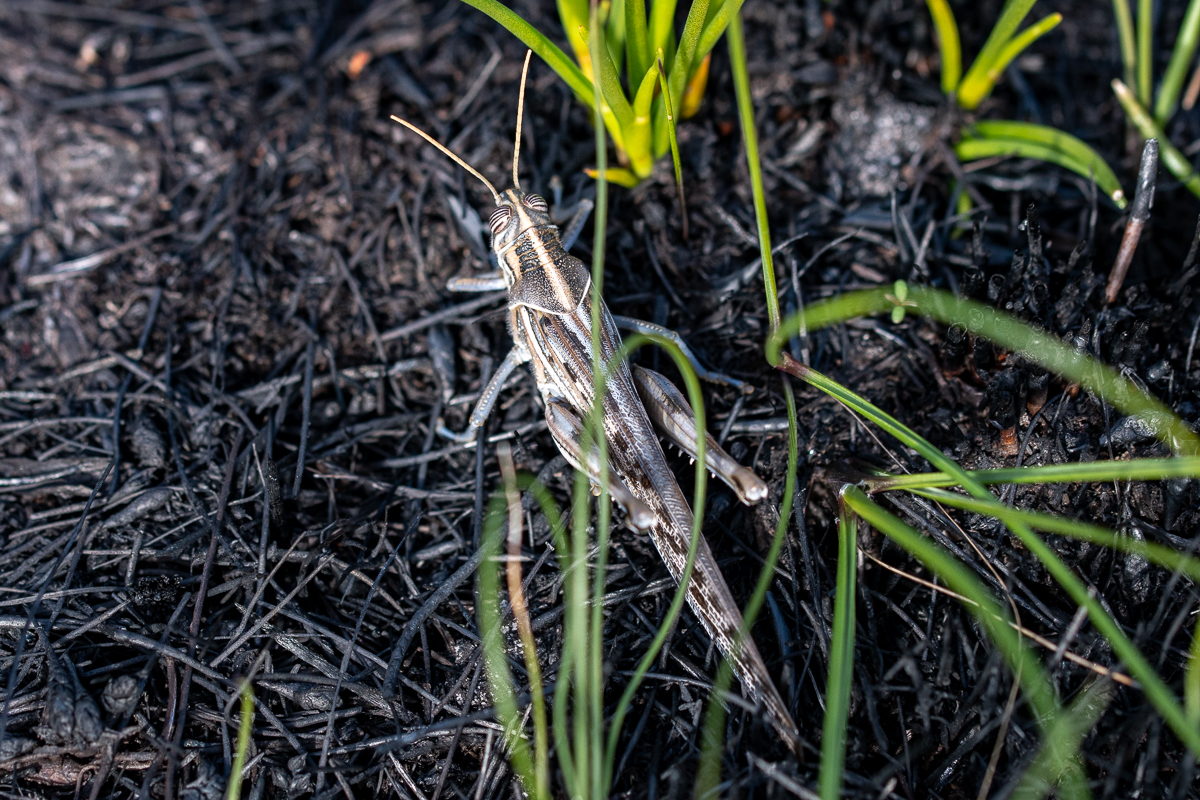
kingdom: Animalia
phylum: Arthropoda
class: Insecta
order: Orthoptera
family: Acrididae
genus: Schistocerca
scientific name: Schistocerca gregaria
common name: Desert locust
